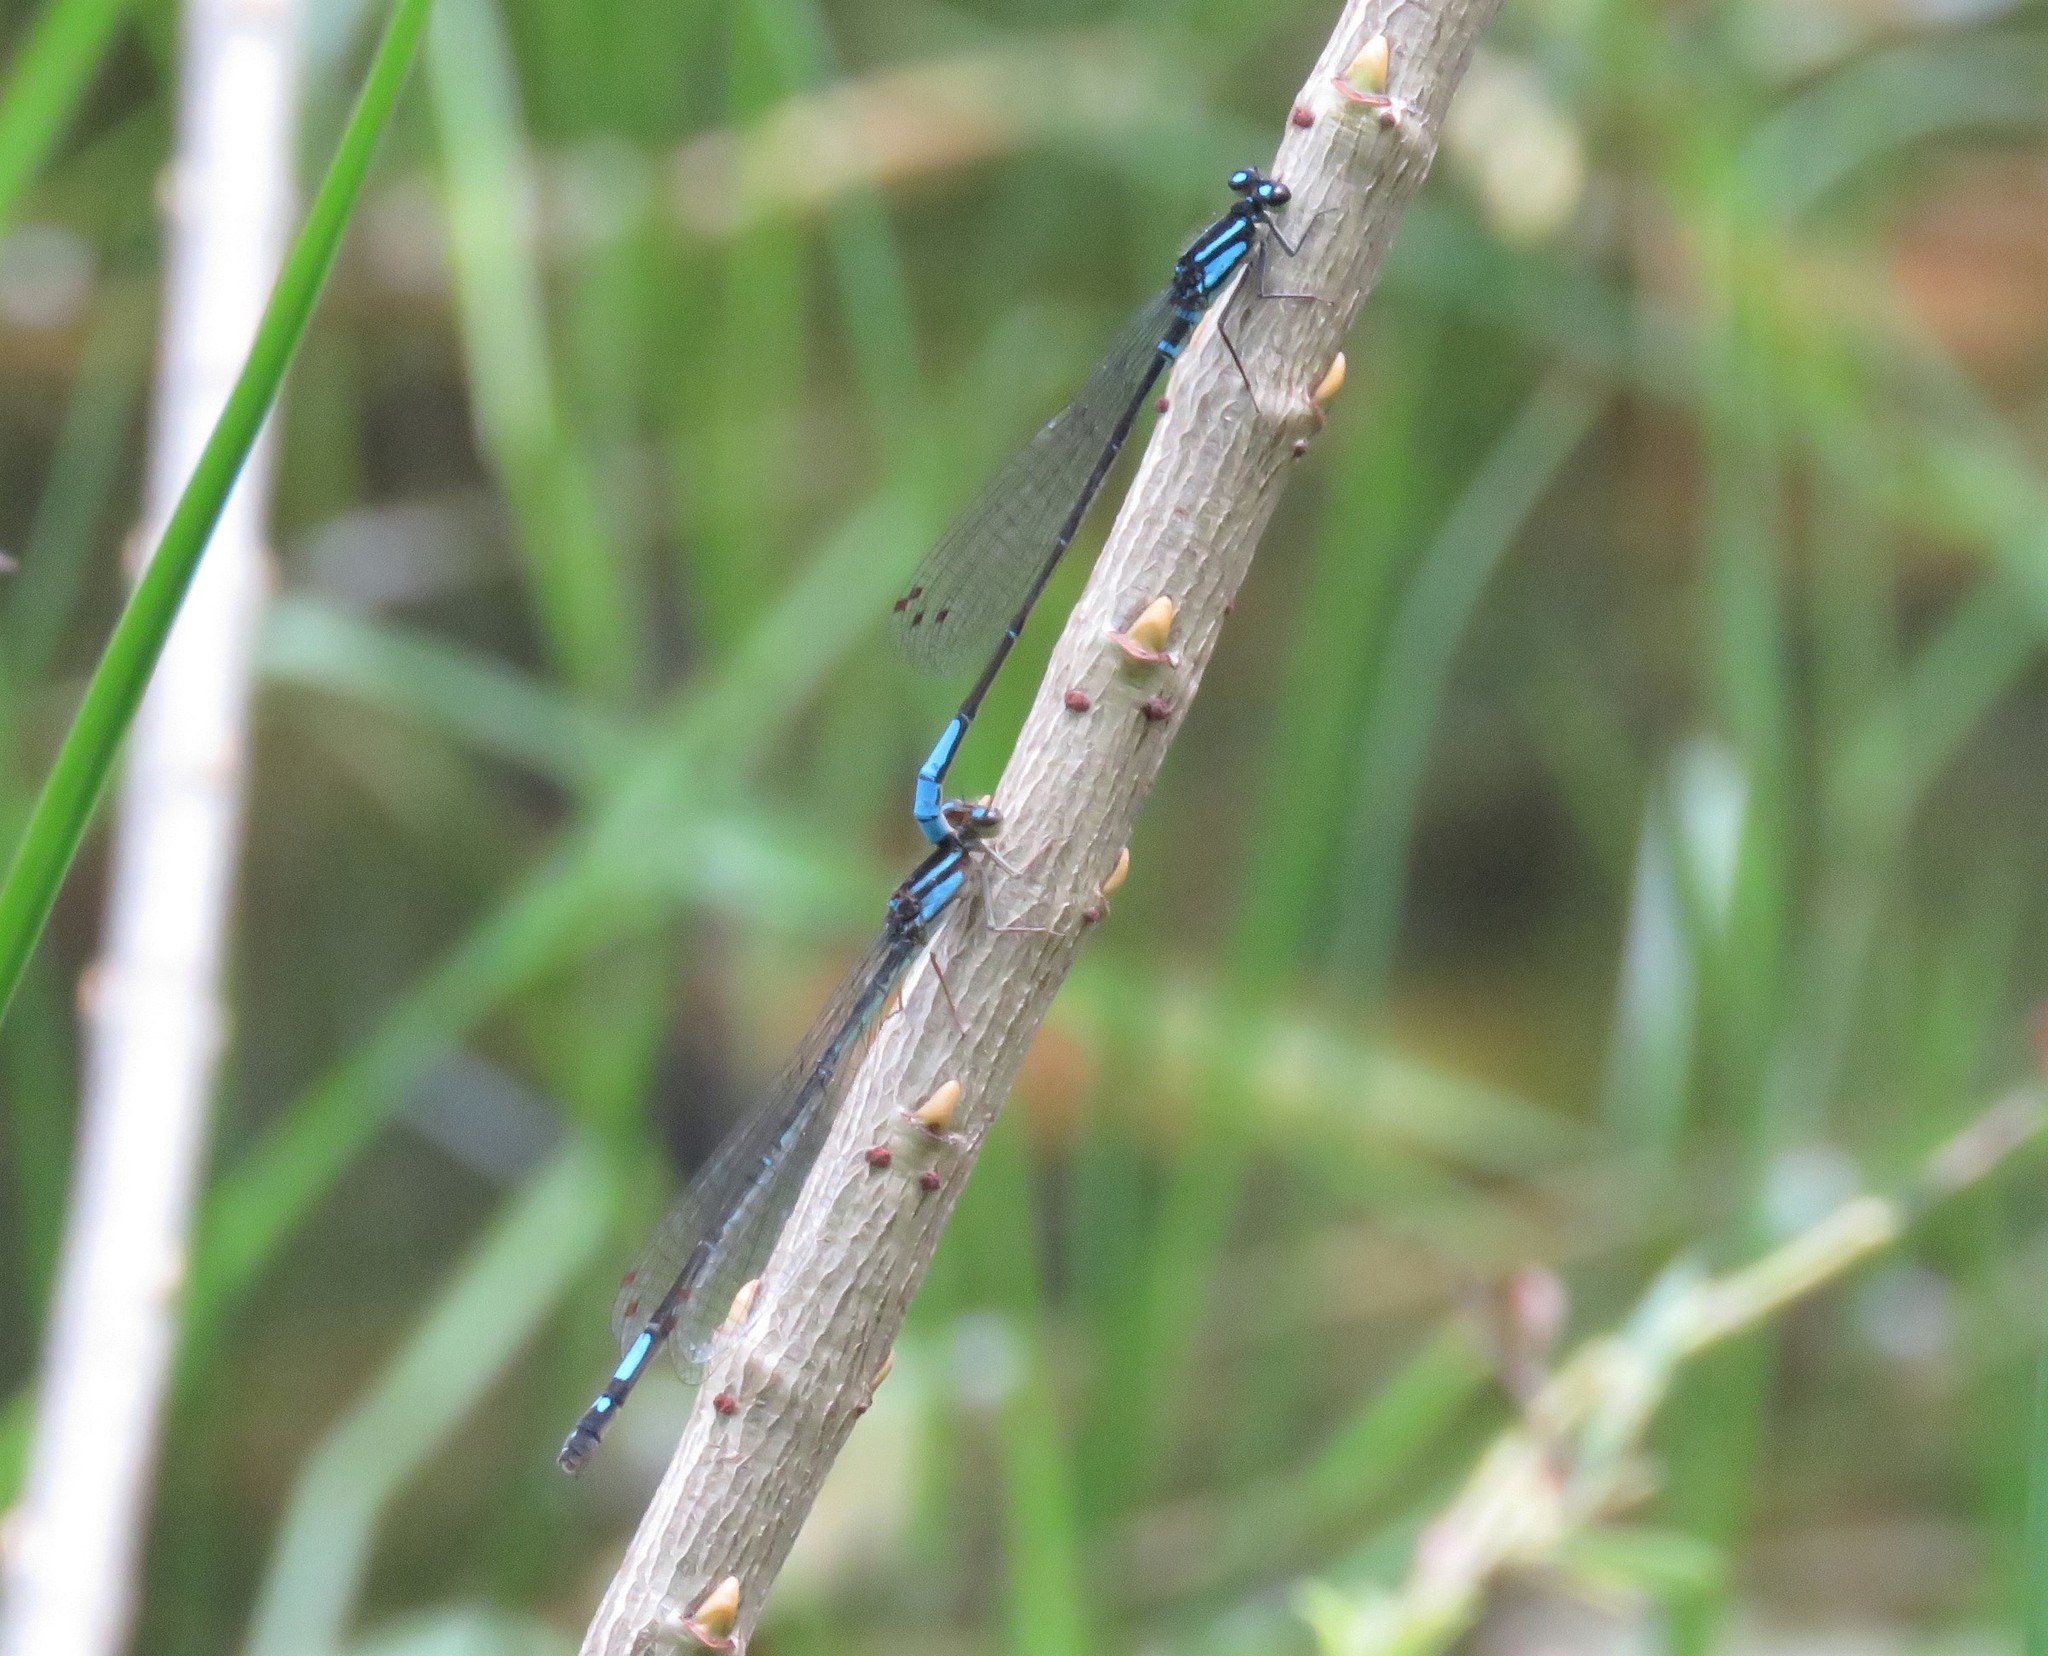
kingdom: Animalia
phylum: Arthropoda
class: Insecta
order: Odonata
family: Coenagrionidae
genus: Mesamphiagrion
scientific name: Mesamphiagrion laterale
